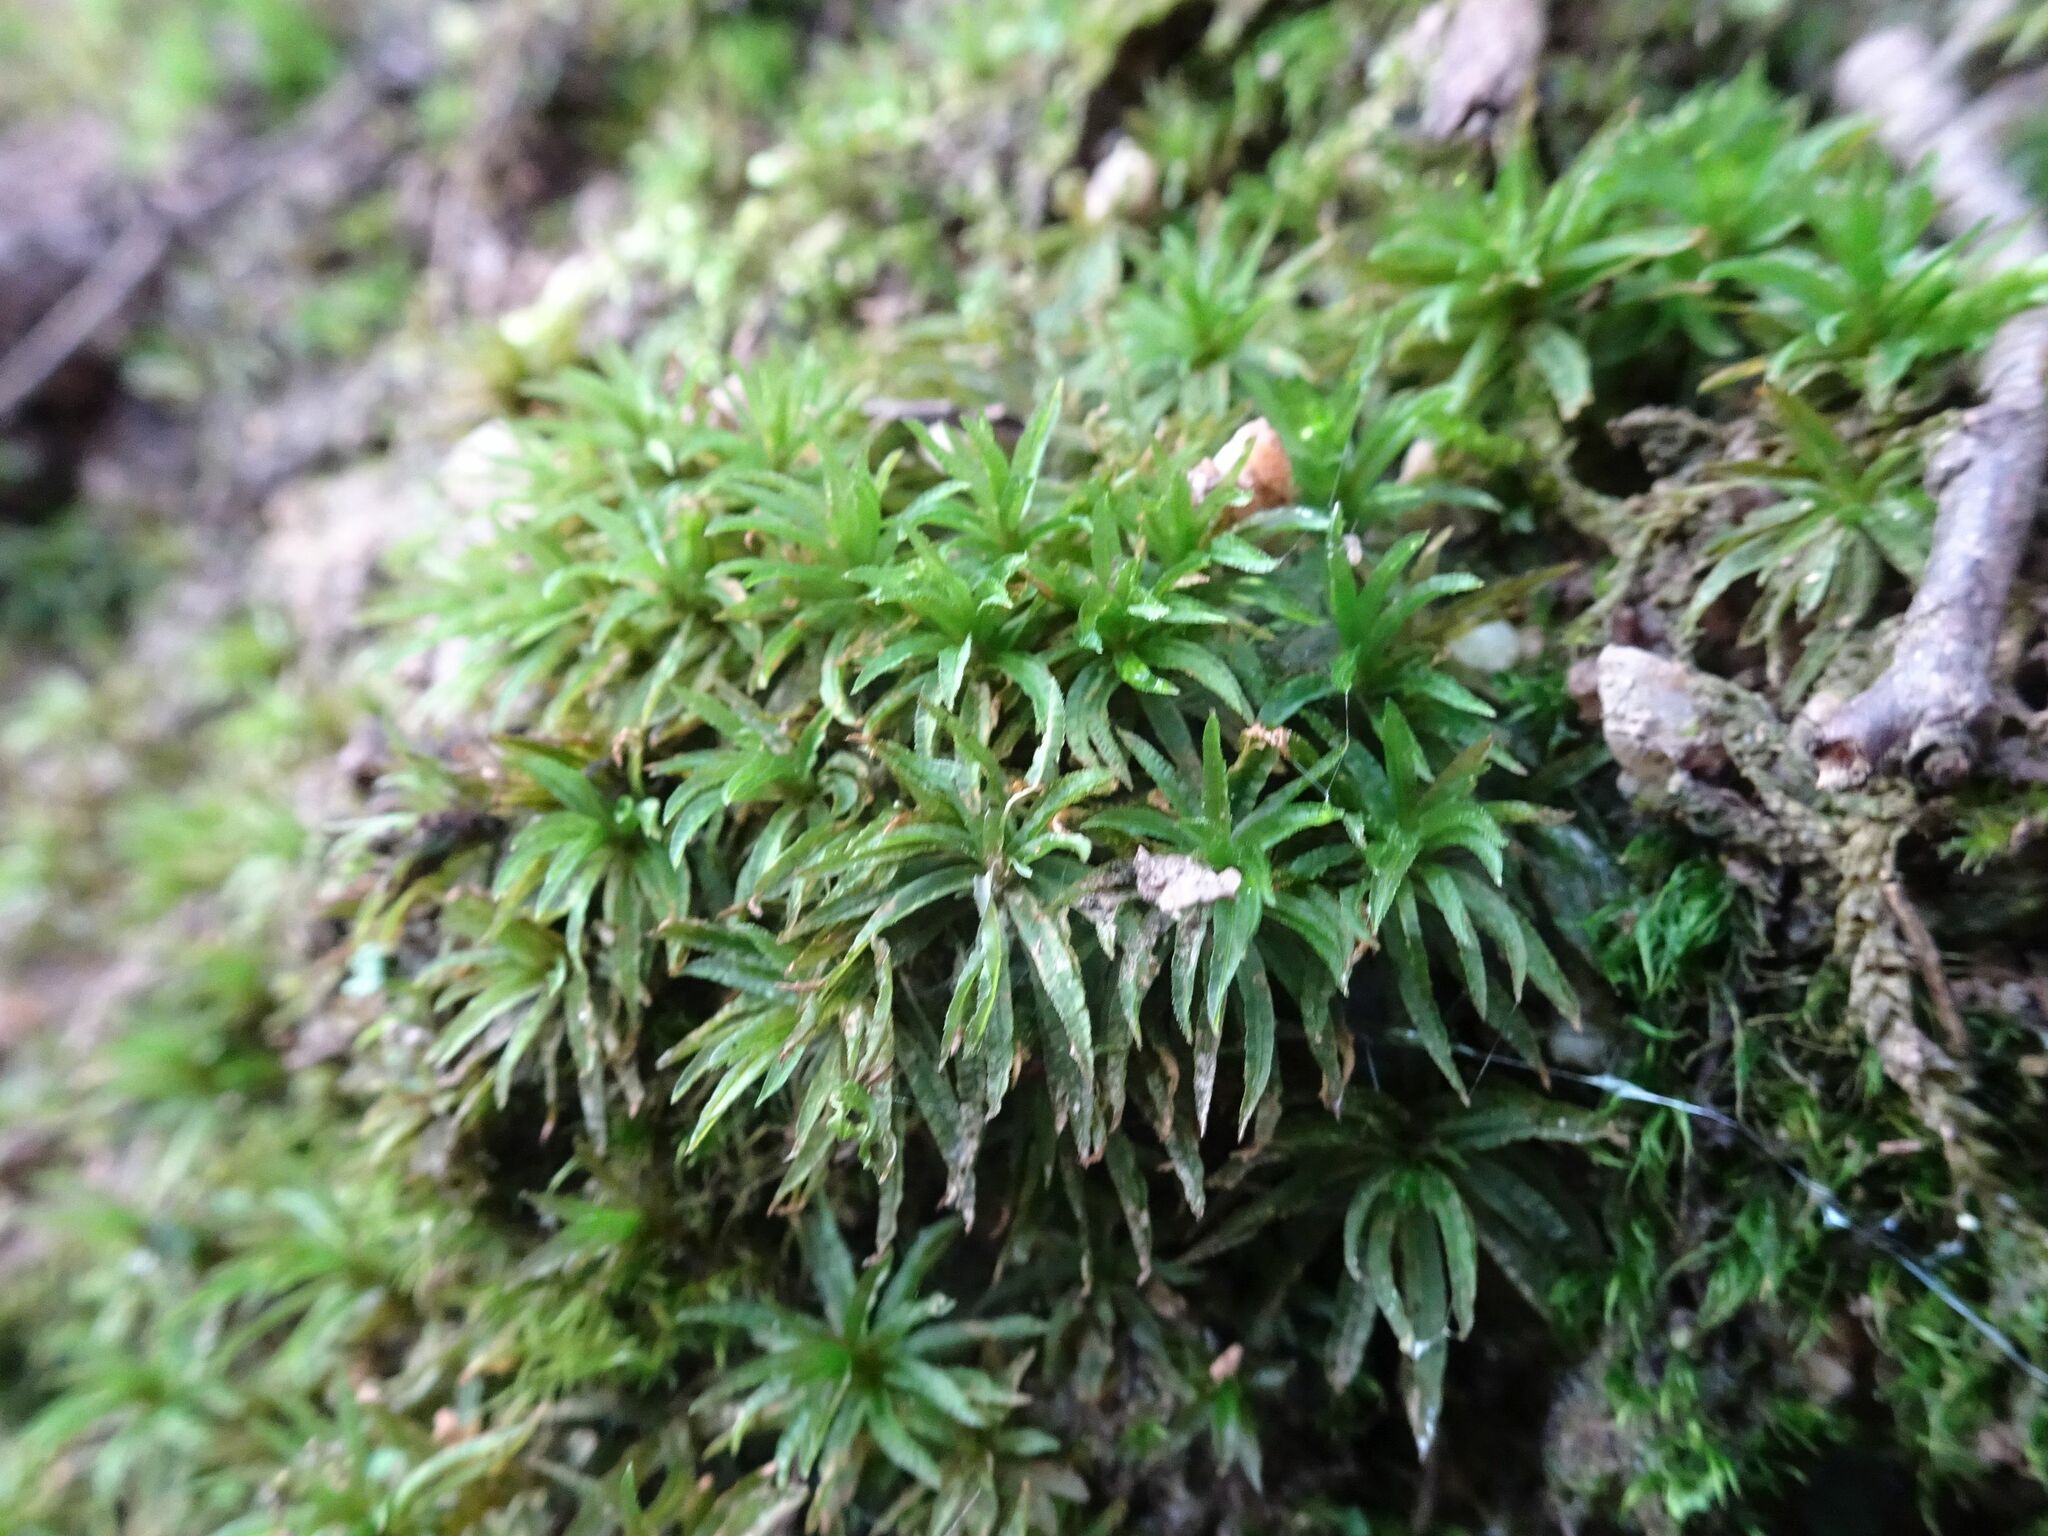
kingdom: Plantae
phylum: Bryophyta
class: Polytrichopsida
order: Polytrichales
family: Polytrichaceae
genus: Atrichum
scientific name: Atrichum undulatum
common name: Common smoothcap
